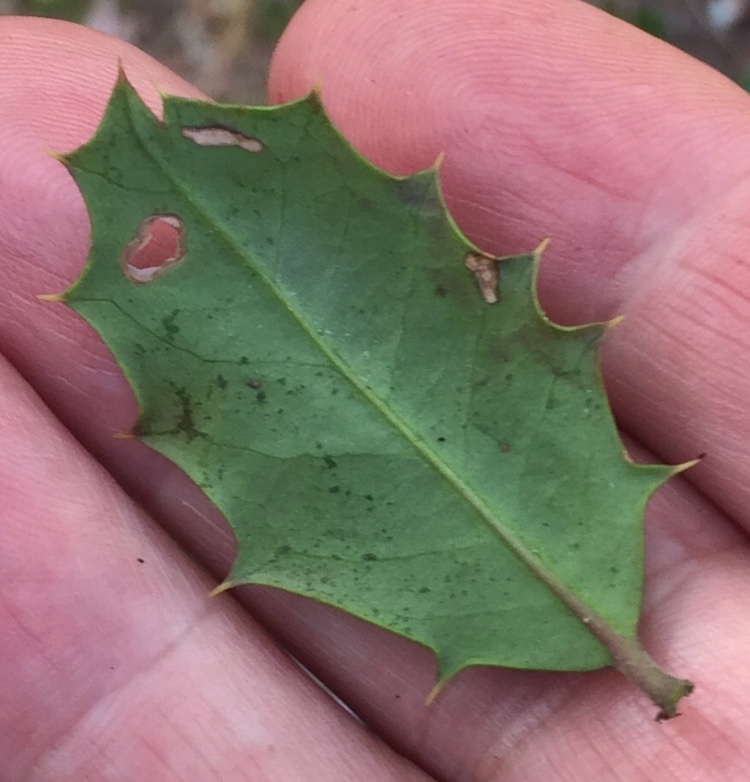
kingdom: Animalia
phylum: Arthropoda
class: Insecta
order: Diptera
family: Agromyzidae
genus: Phytomyza
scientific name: Phytomyza opacae
